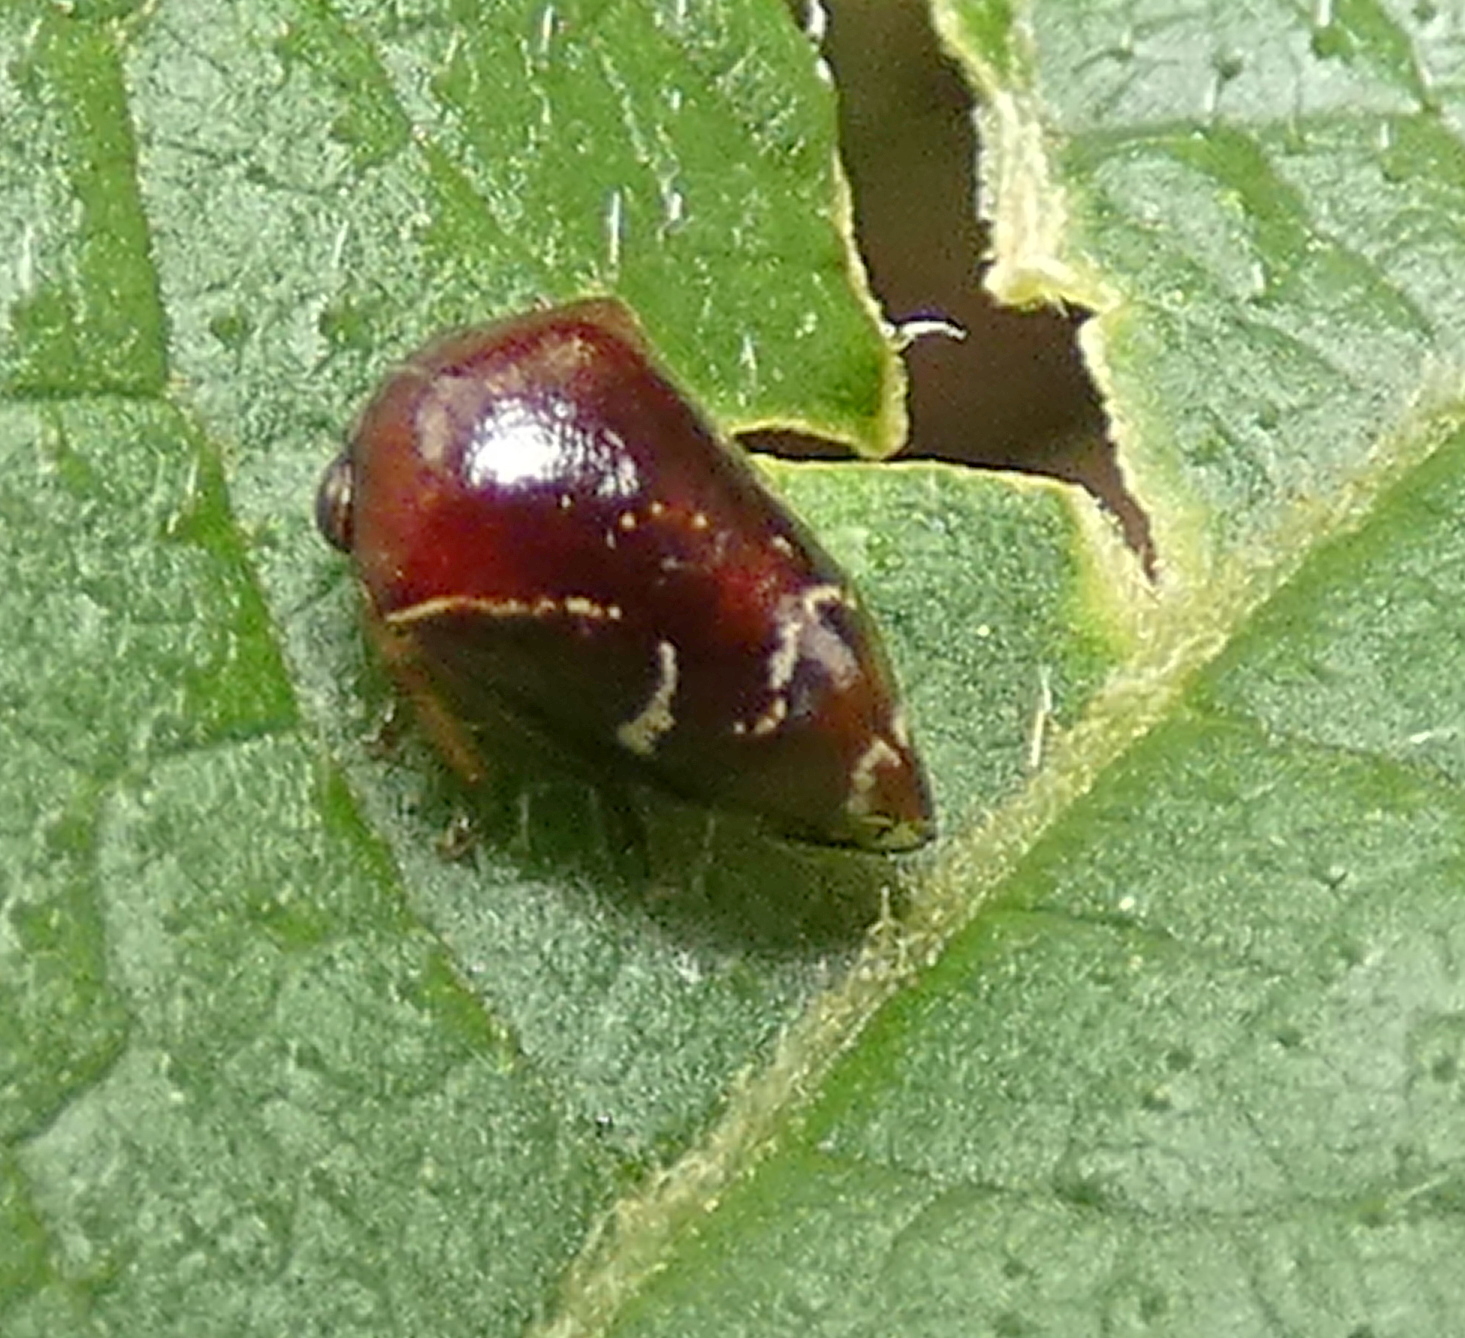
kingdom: Animalia
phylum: Arthropoda
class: Insecta
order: Hemiptera
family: Membracidae
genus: Horiola
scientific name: Horiola picta
